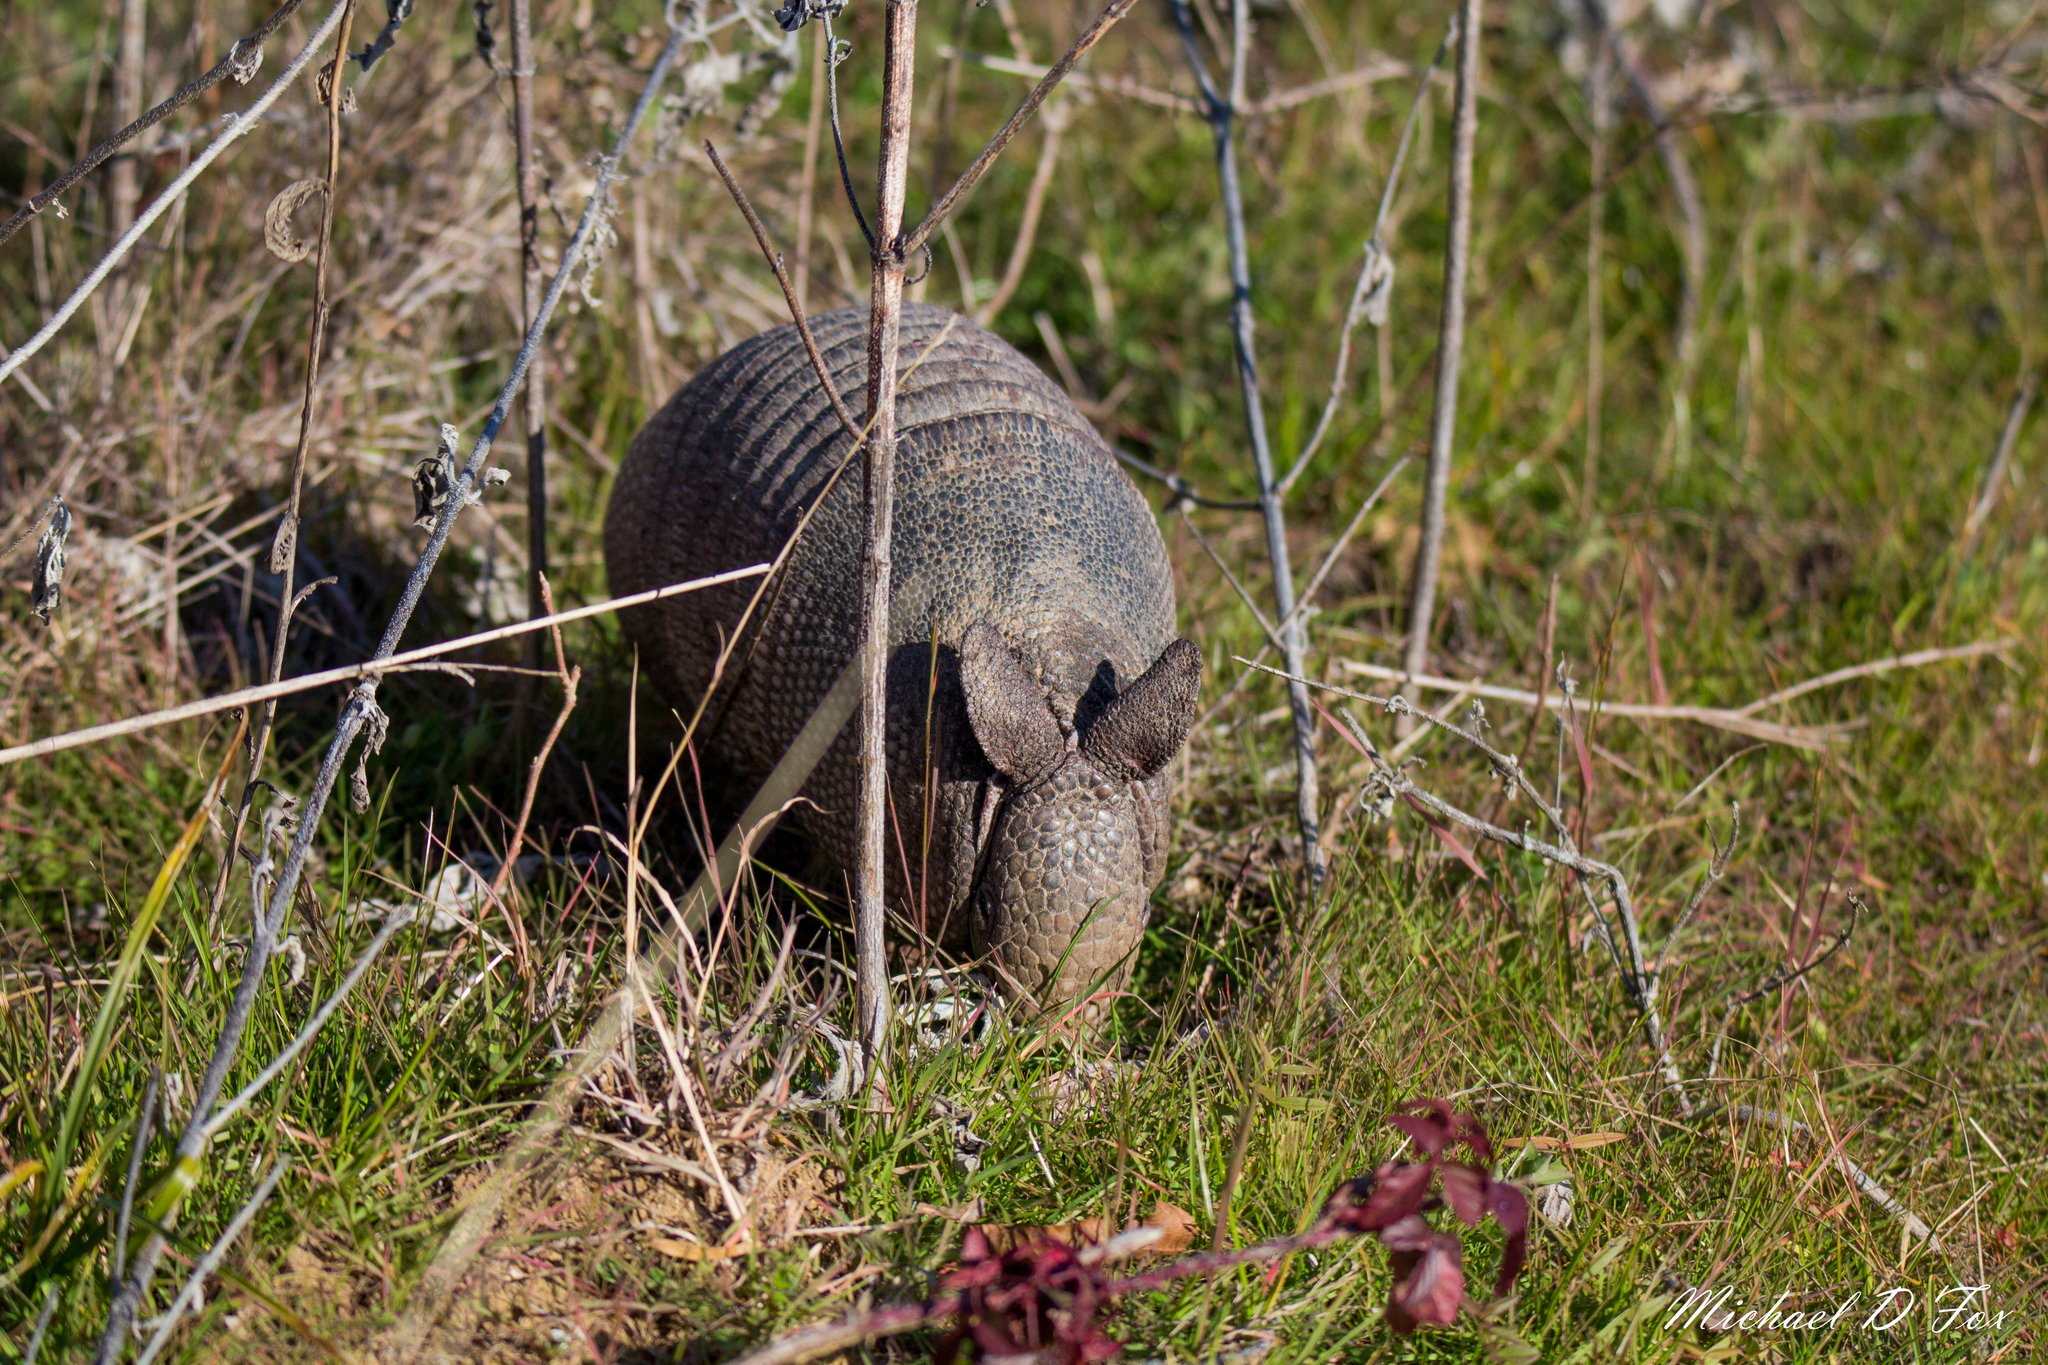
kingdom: Animalia
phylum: Chordata
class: Mammalia
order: Cingulata
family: Dasypodidae
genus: Dasypus
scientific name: Dasypus novemcinctus
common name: Nine-banded armadillo
